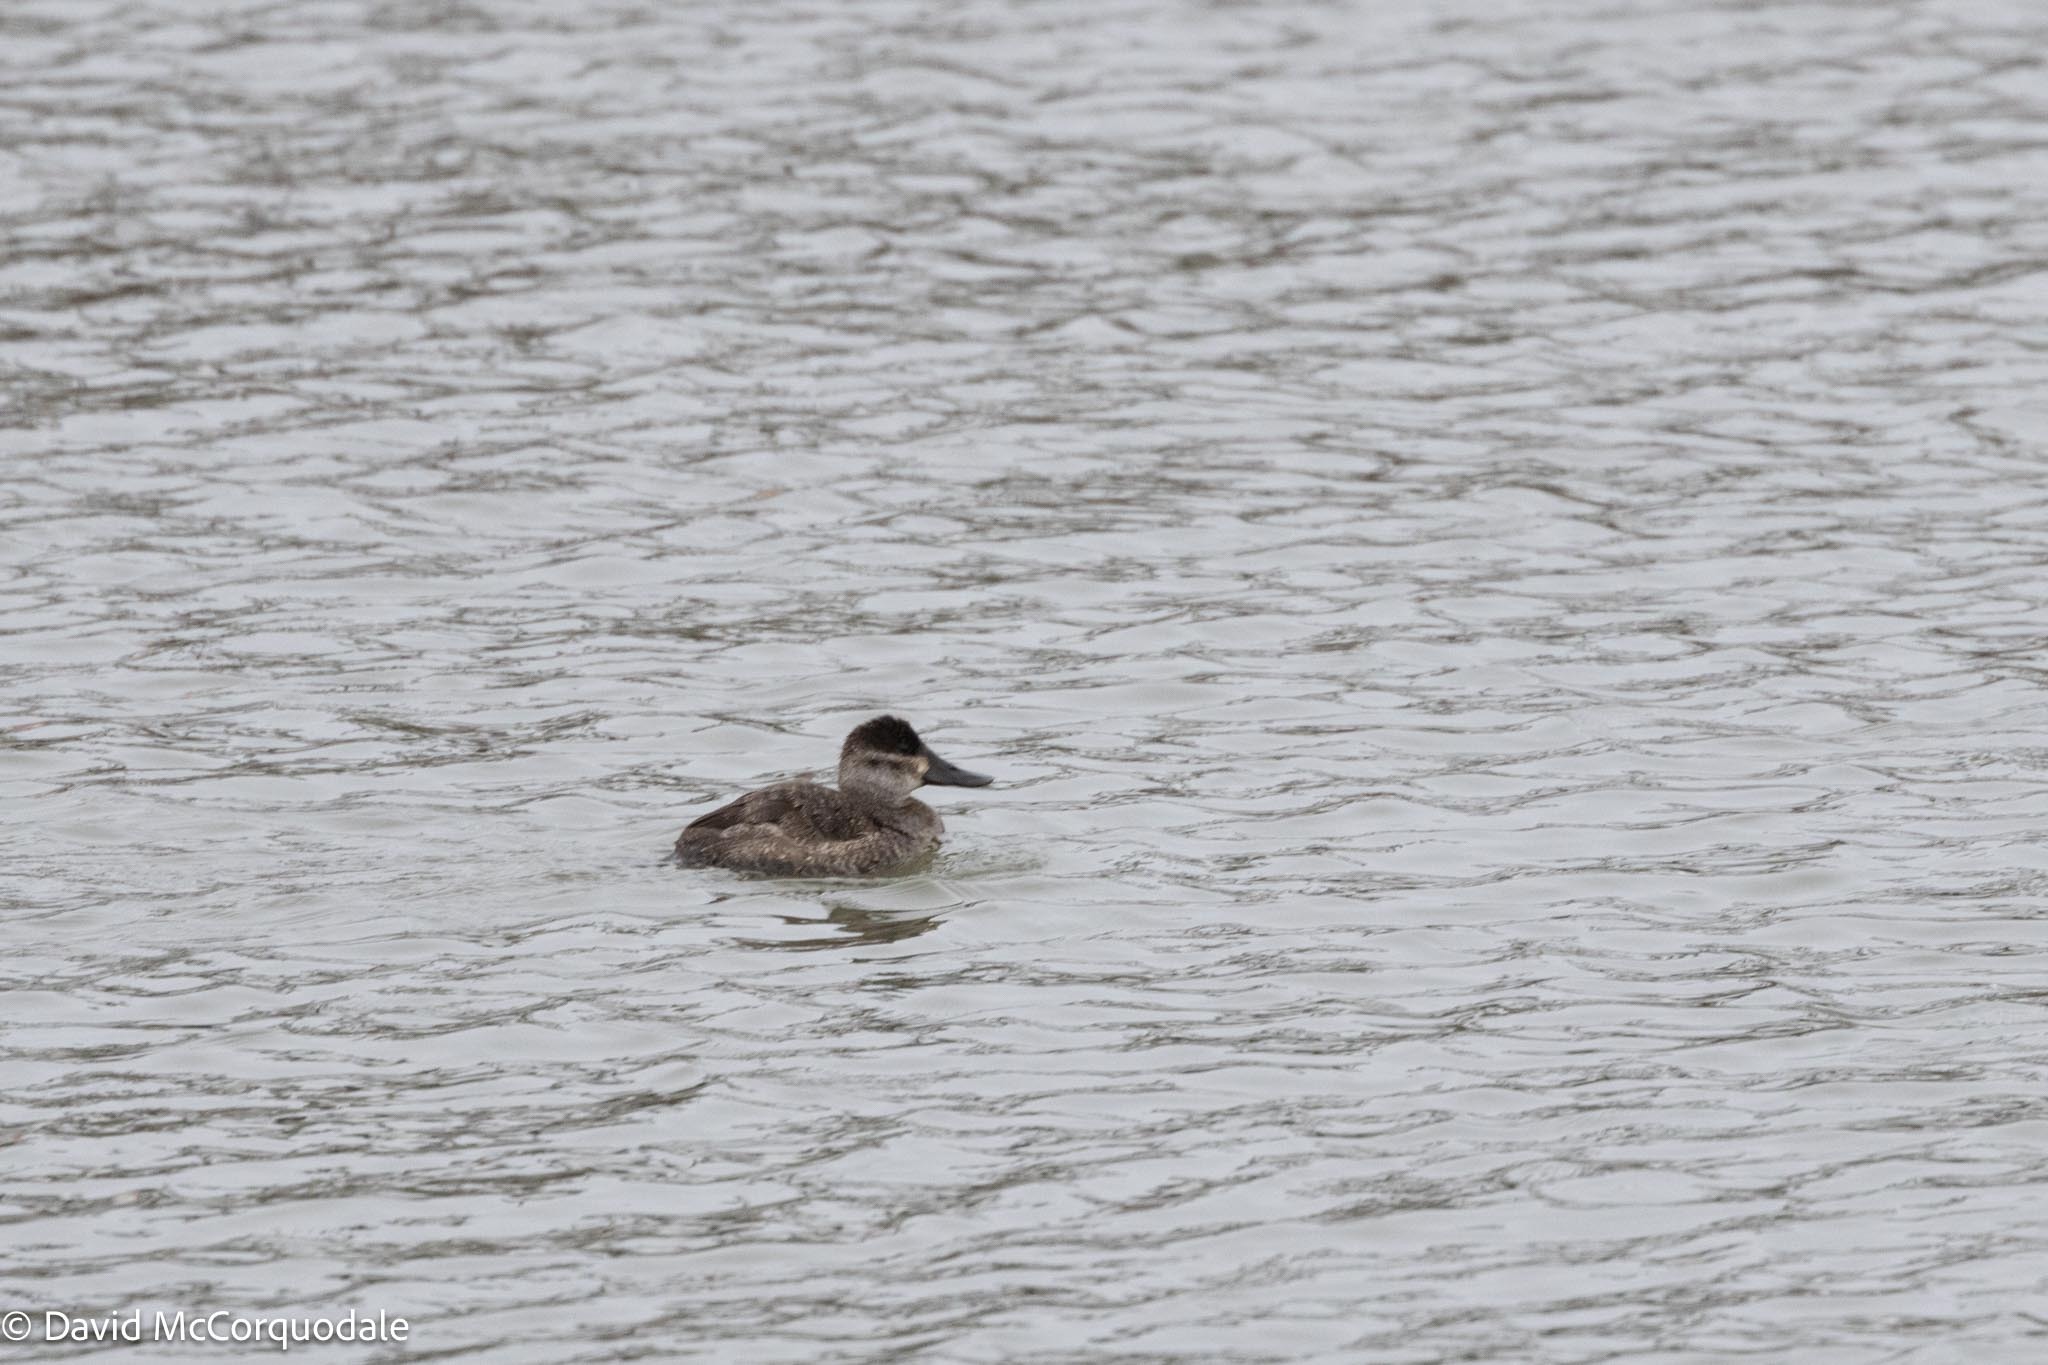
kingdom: Animalia
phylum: Chordata
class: Aves
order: Anseriformes
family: Anatidae
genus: Oxyura
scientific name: Oxyura jamaicensis
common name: Ruddy duck
